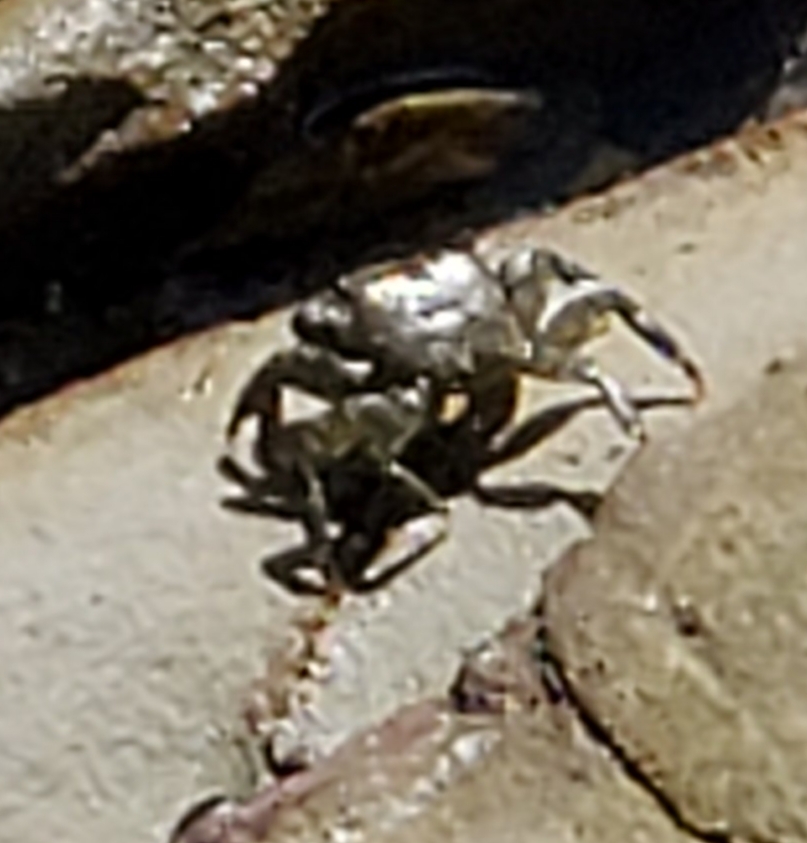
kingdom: Animalia
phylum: Arthropoda
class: Malacostraca
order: Decapoda
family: Grapsidae
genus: Pachygrapsus
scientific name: Pachygrapsus crassipes
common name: Striped shore crab
